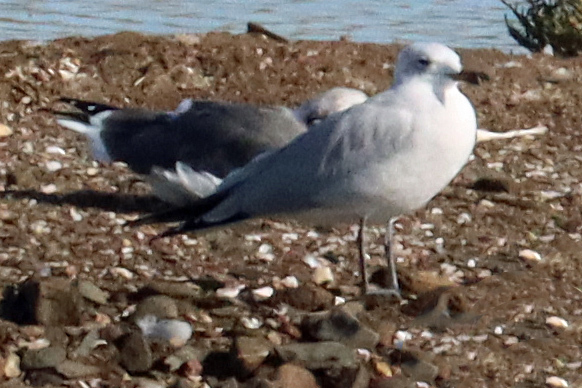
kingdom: Animalia
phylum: Chordata
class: Aves
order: Charadriiformes
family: Laridae
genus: Ichthyaetus
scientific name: Ichthyaetus audouinii
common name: Audouin's gull
